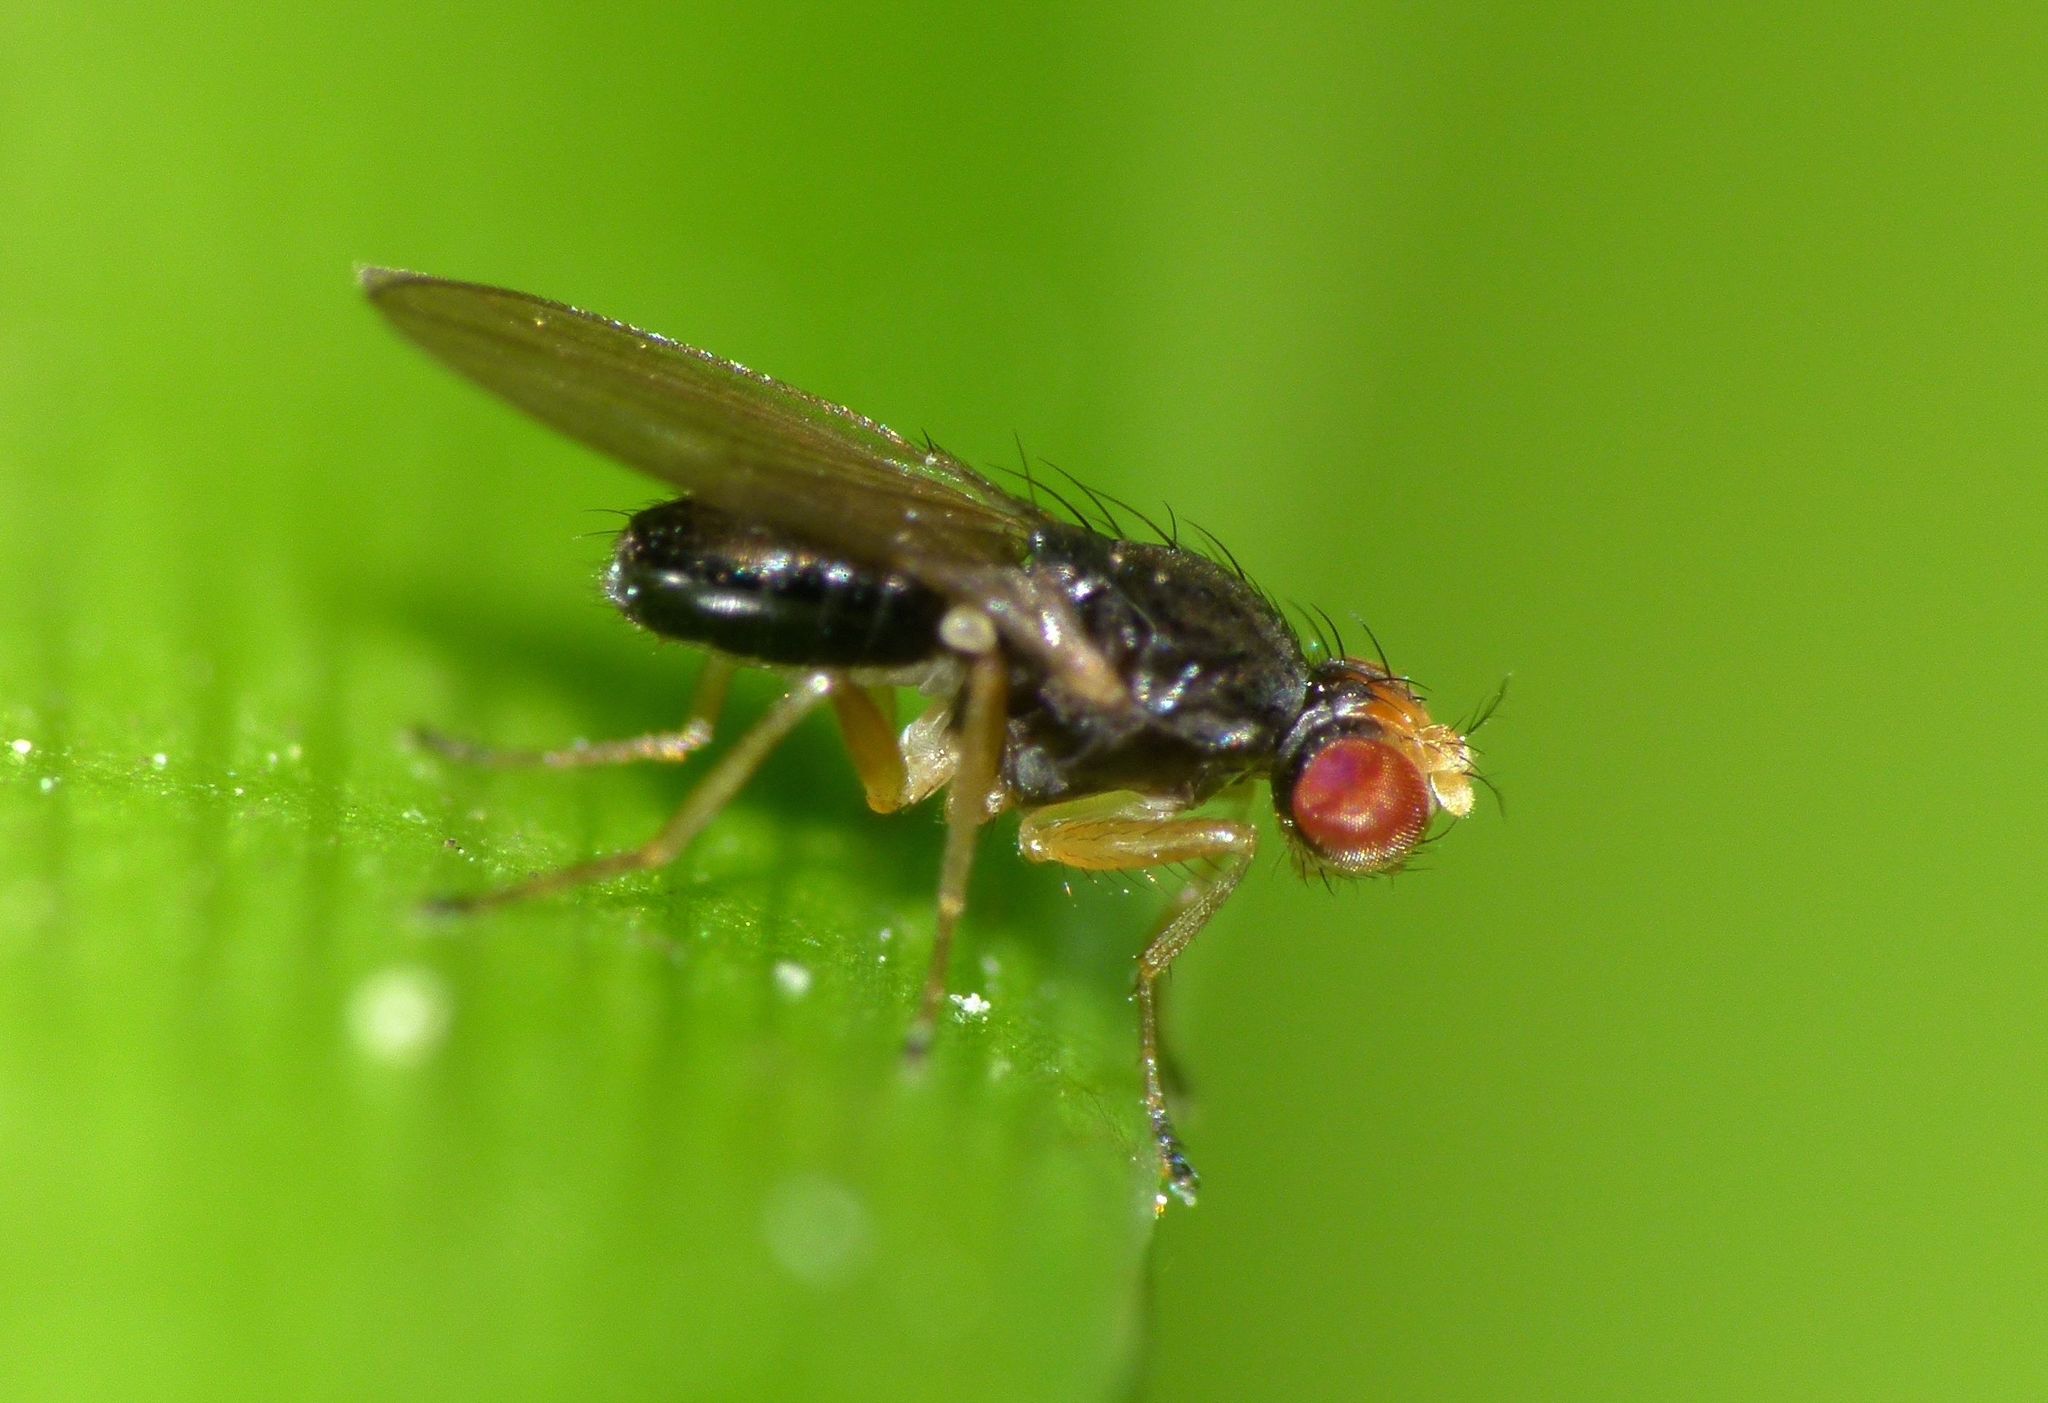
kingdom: Animalia
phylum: Arthropoda
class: Insecta
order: Diptera
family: Drosophilidae
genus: Scaptomyza
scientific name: Scaptomyza fuscitarsis
